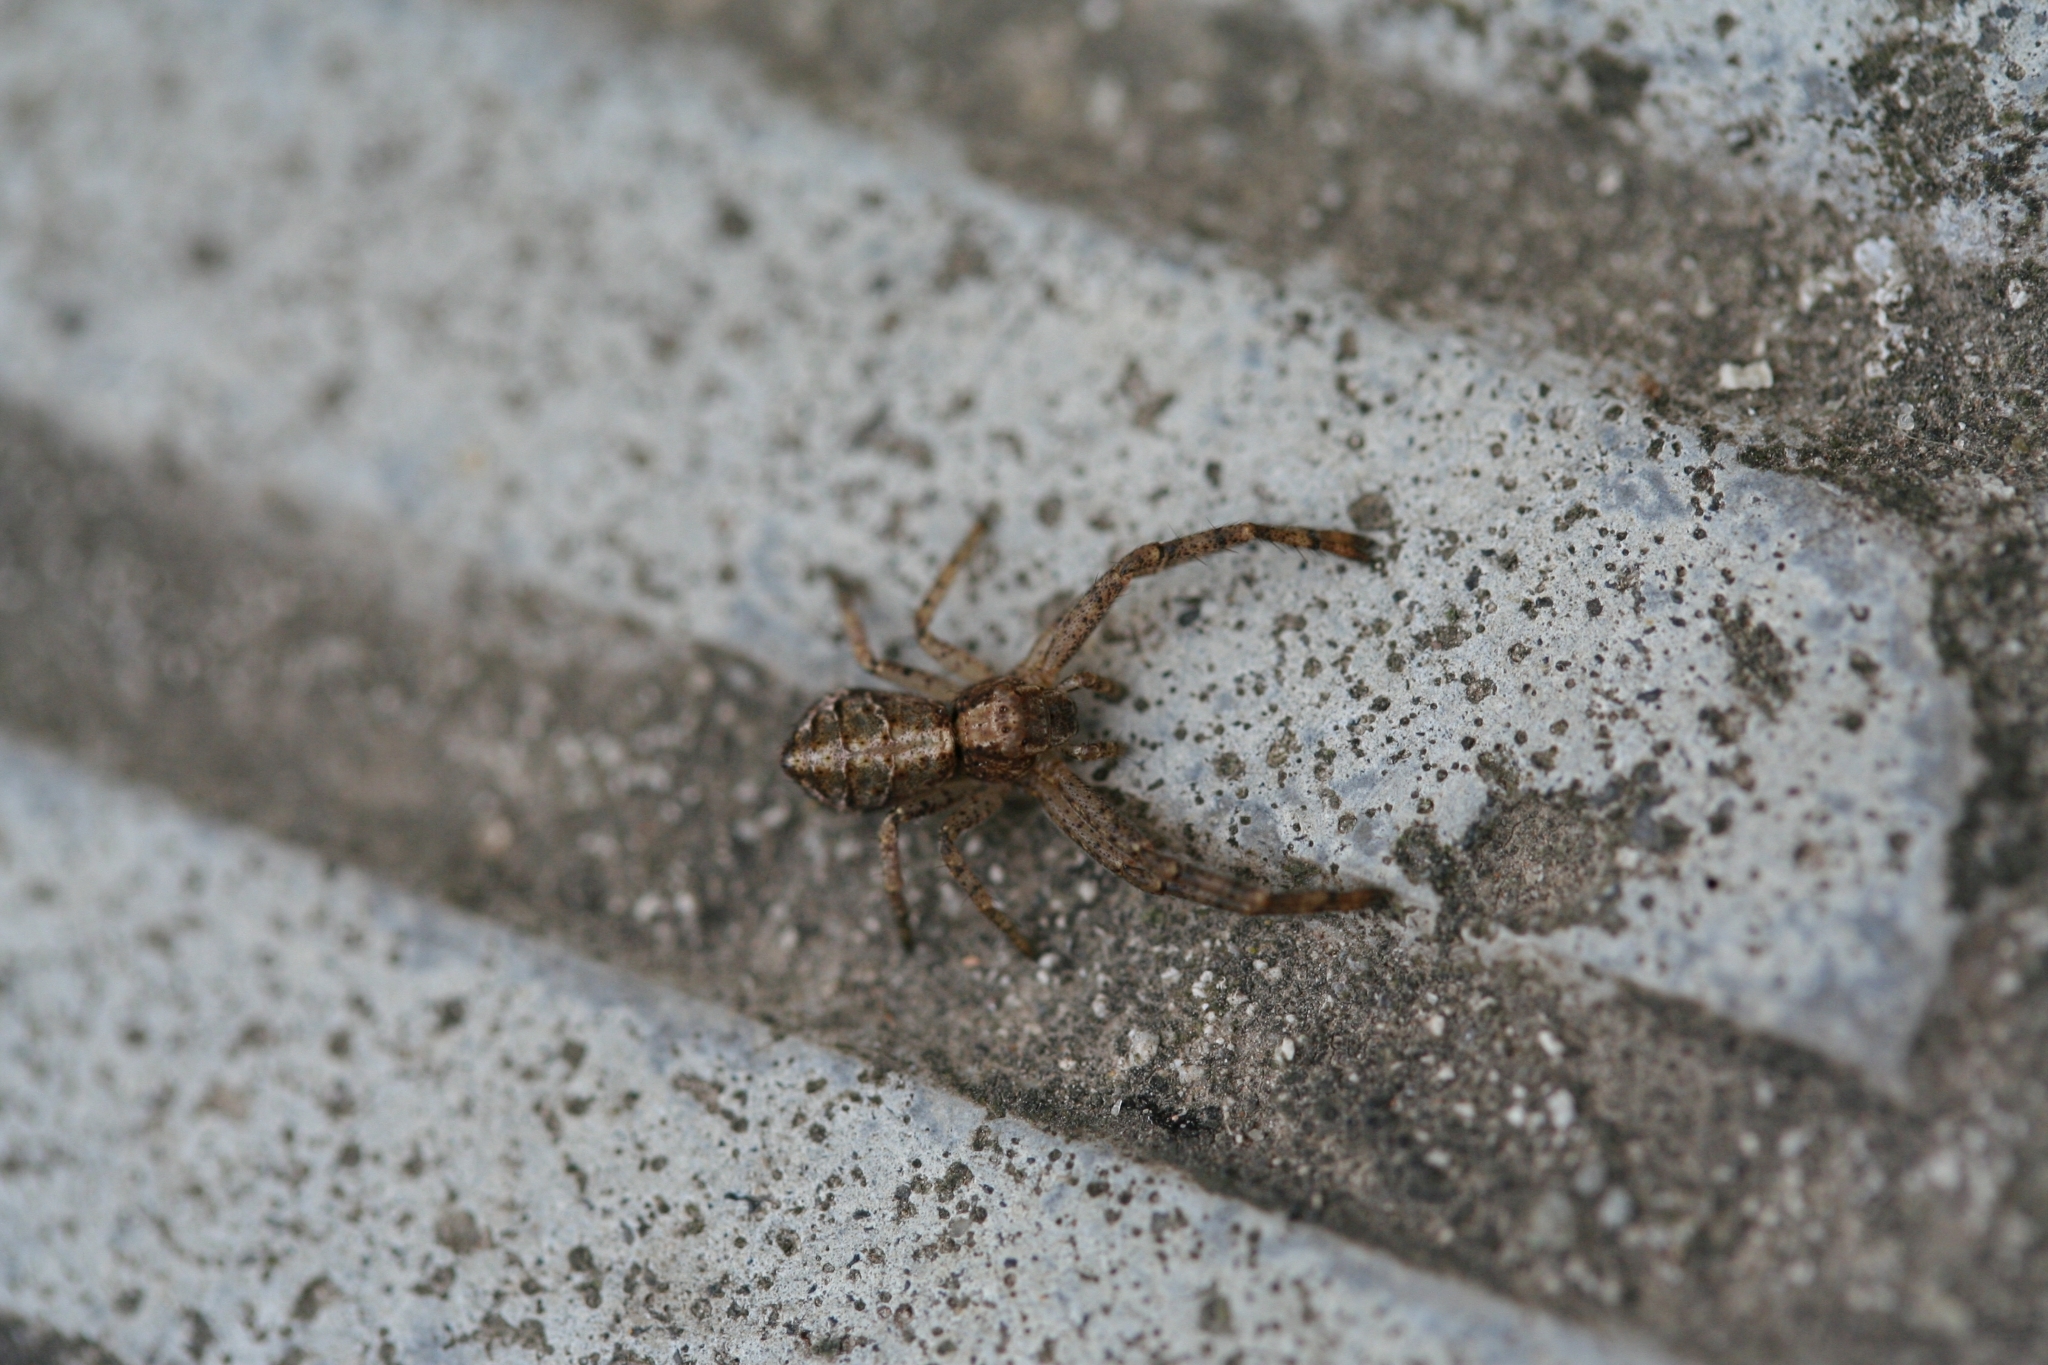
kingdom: Animalia
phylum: Arthropoda
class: Arachnida
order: Araneae
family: Thomisidae
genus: Tmarus
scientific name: Tmarus piger
